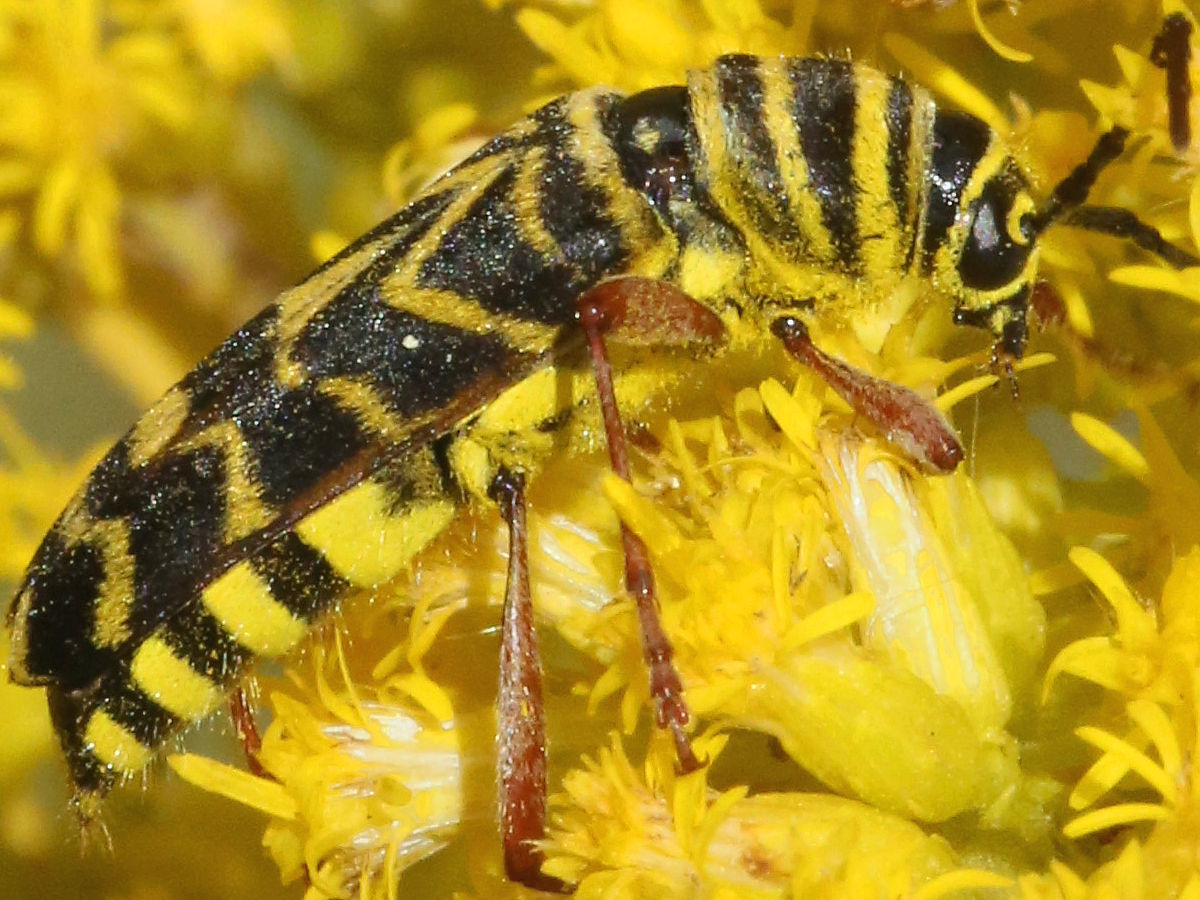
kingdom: Animalia
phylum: Arthropoda
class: Insecta
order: Coleoptera
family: Cerambycidae
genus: Megacyllene
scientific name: Megacyllene robiniae
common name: Locust borer
